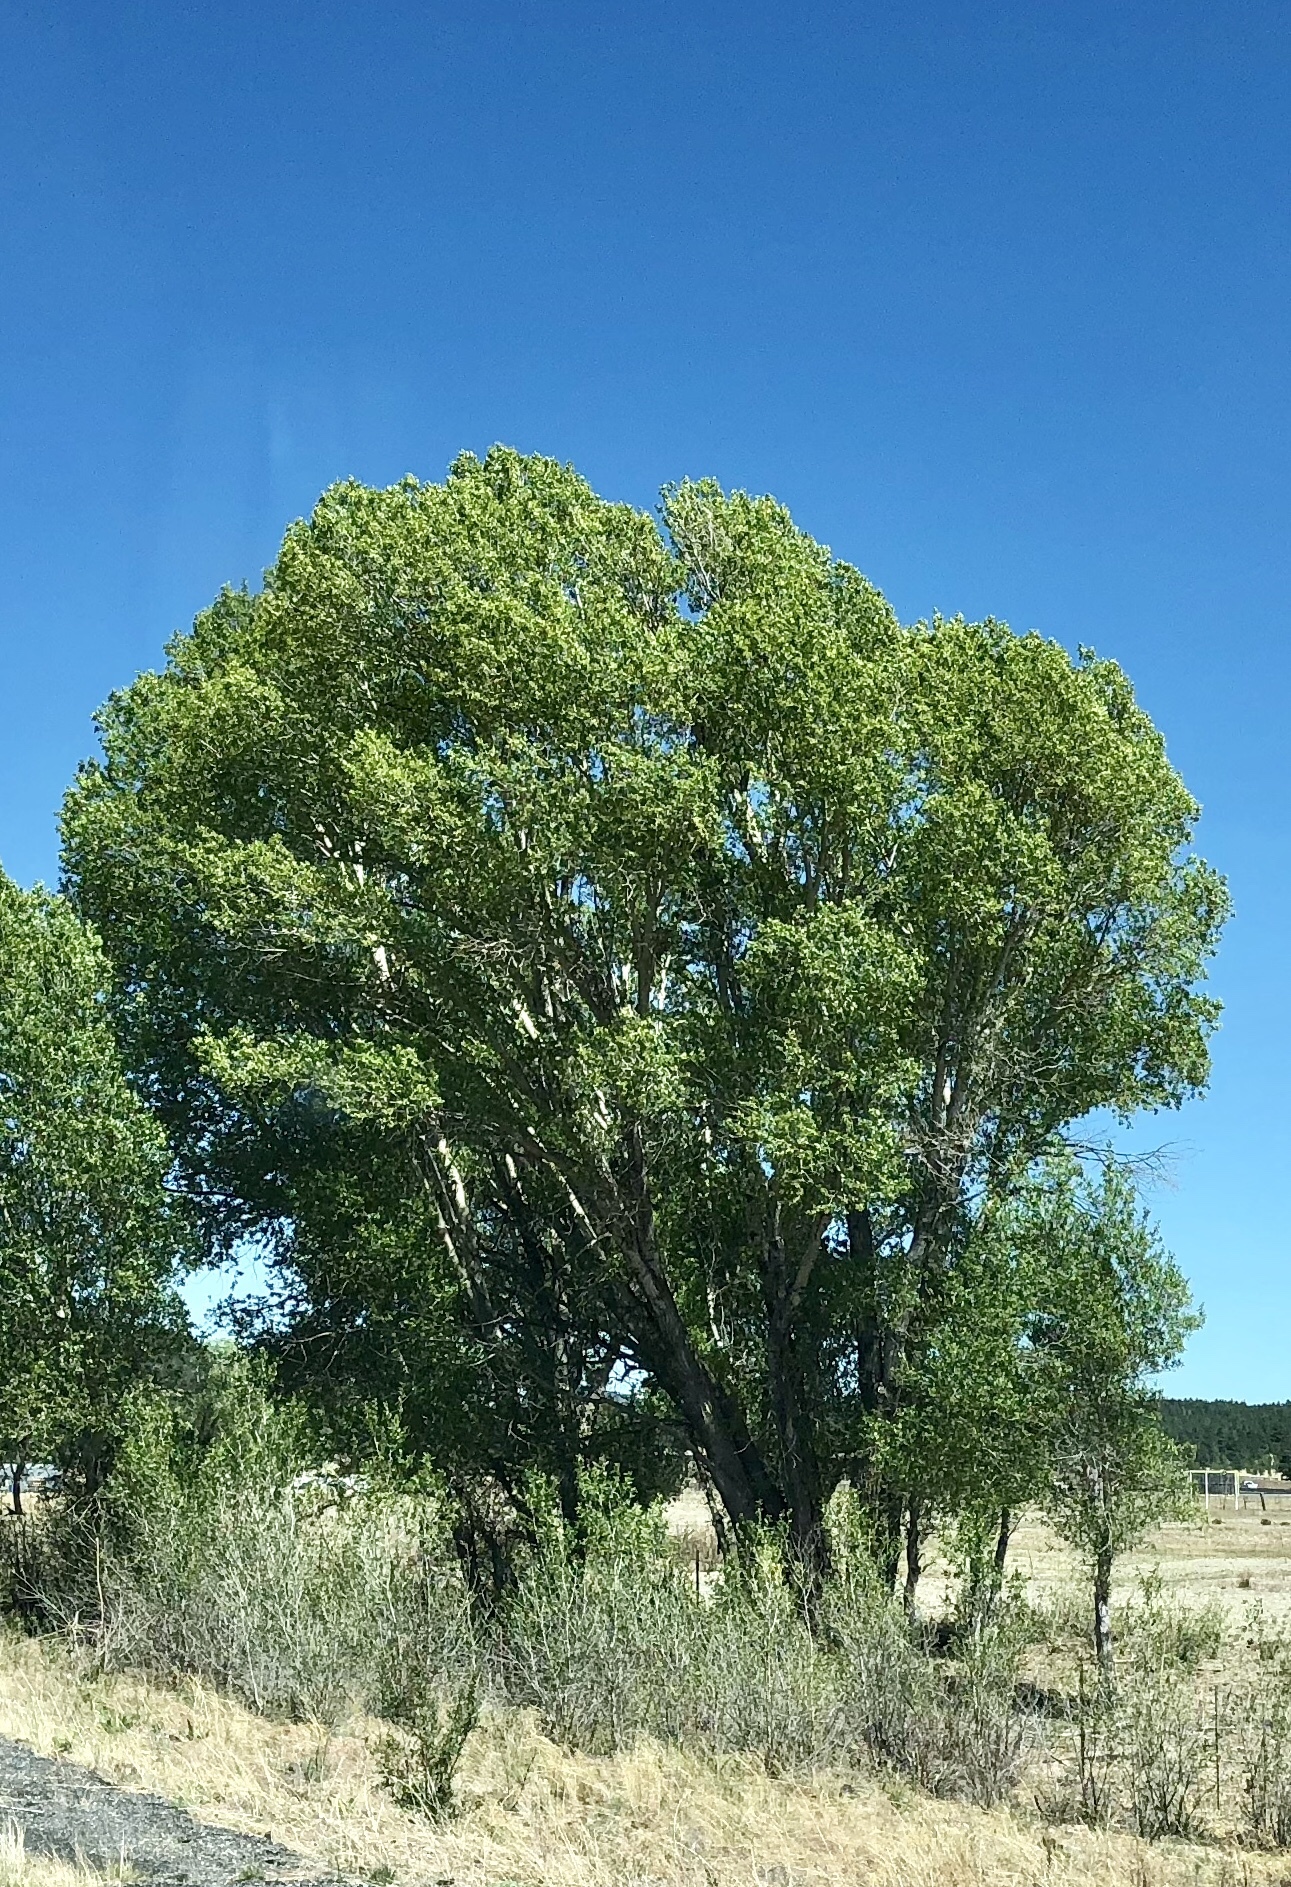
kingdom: Plantae
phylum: Tracheophyta
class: Magnoliopsida
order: Malpighiales
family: Salicaceae
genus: Populus
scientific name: Populus fremontii
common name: Fremont's cottonwood
